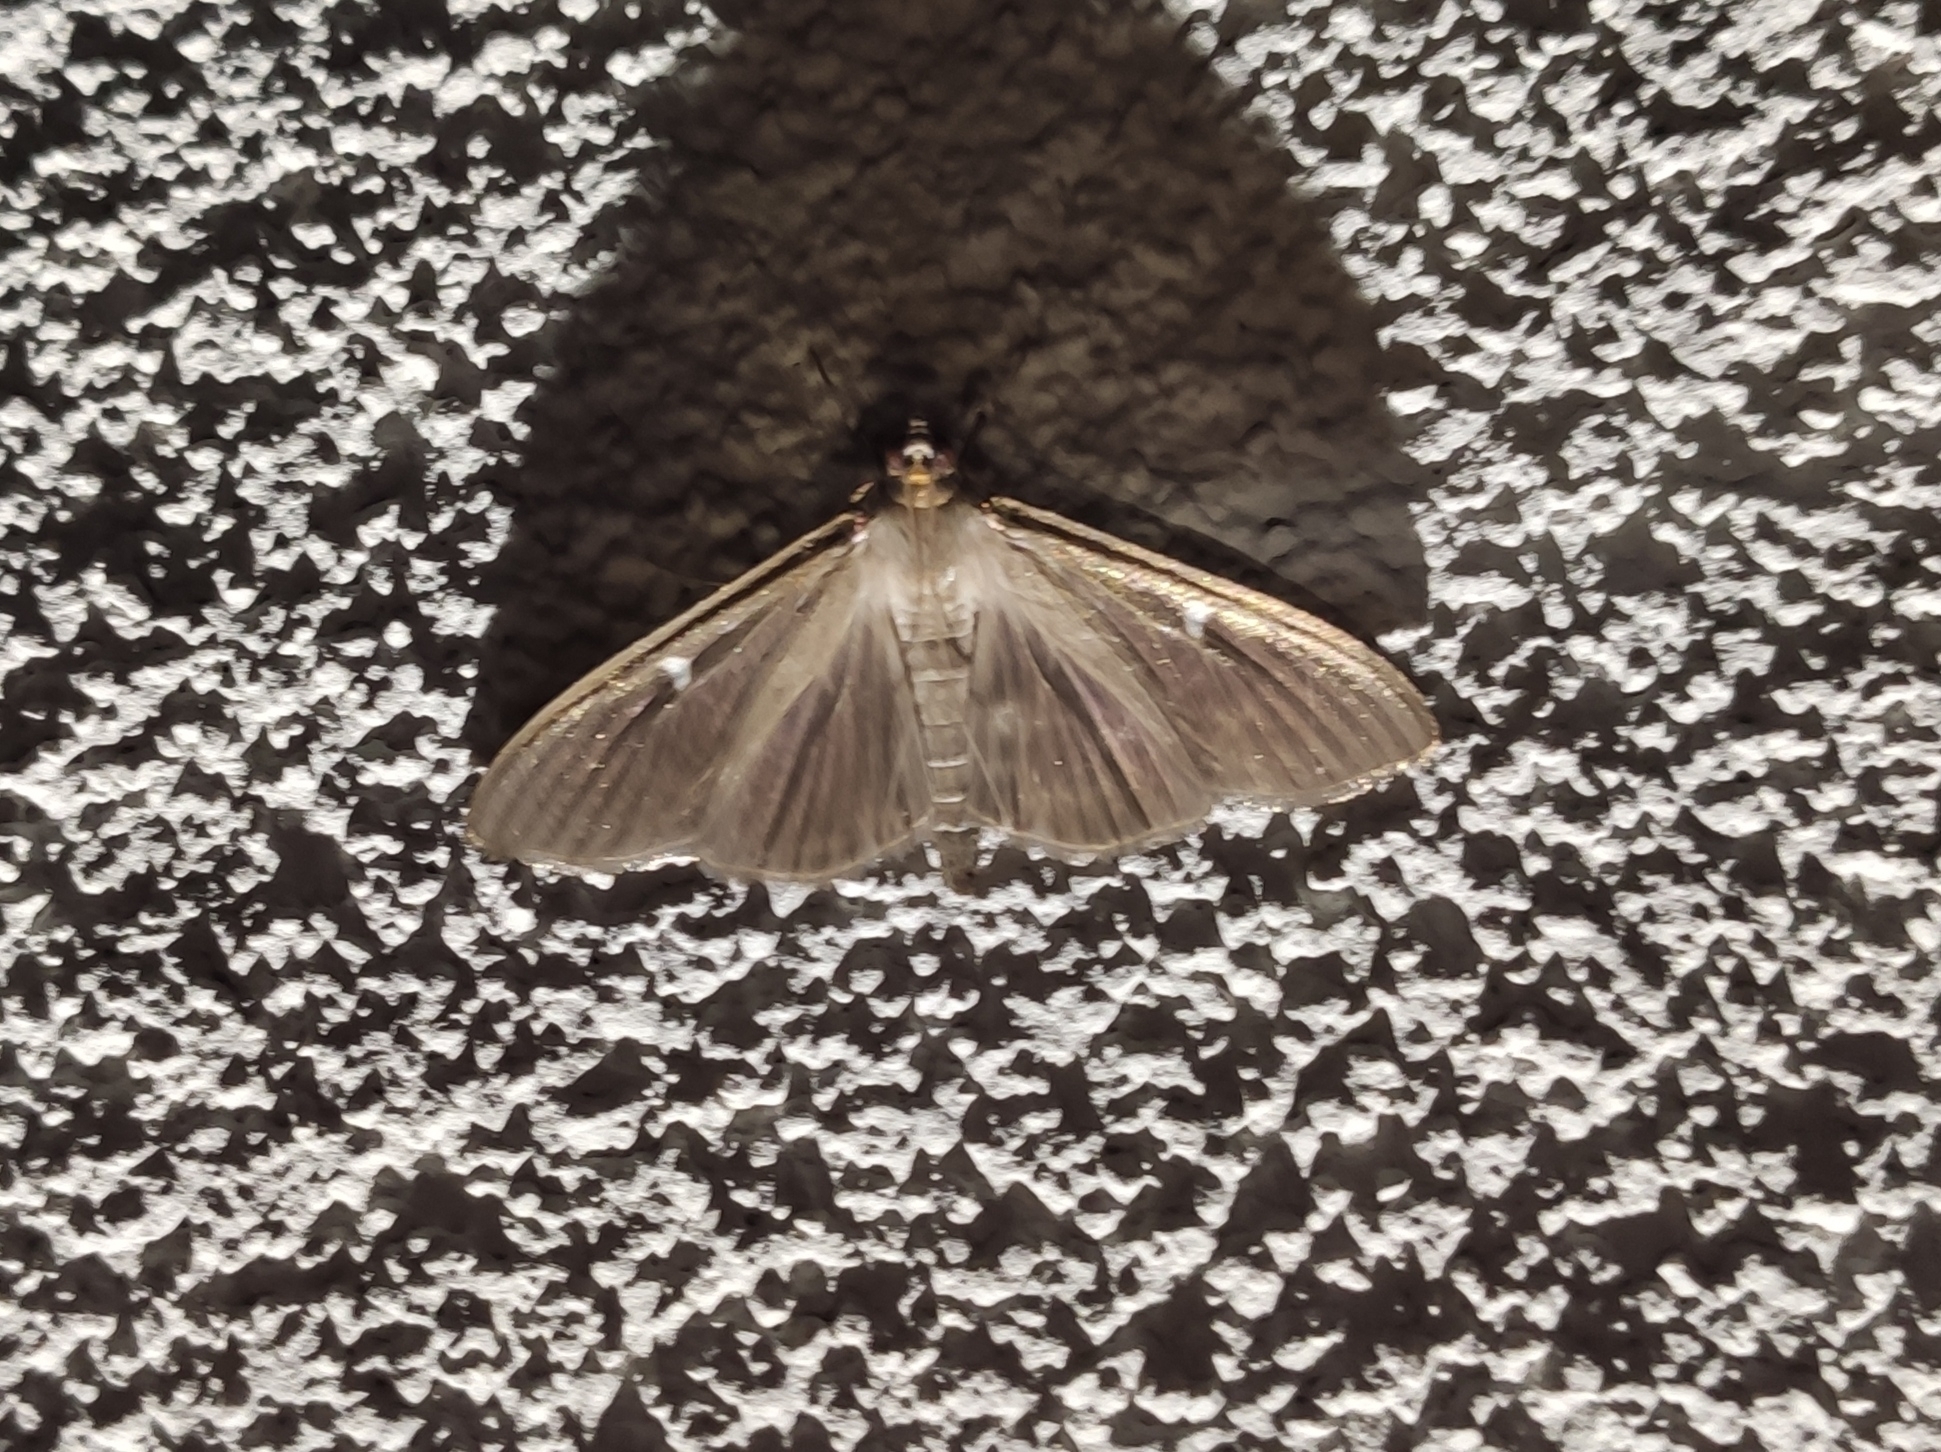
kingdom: Animalia
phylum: Arthropoda
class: Insecta
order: Lepidoptera
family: Crambidae
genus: Cydalima
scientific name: Cydalima perspectalis
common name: Box tree moth
